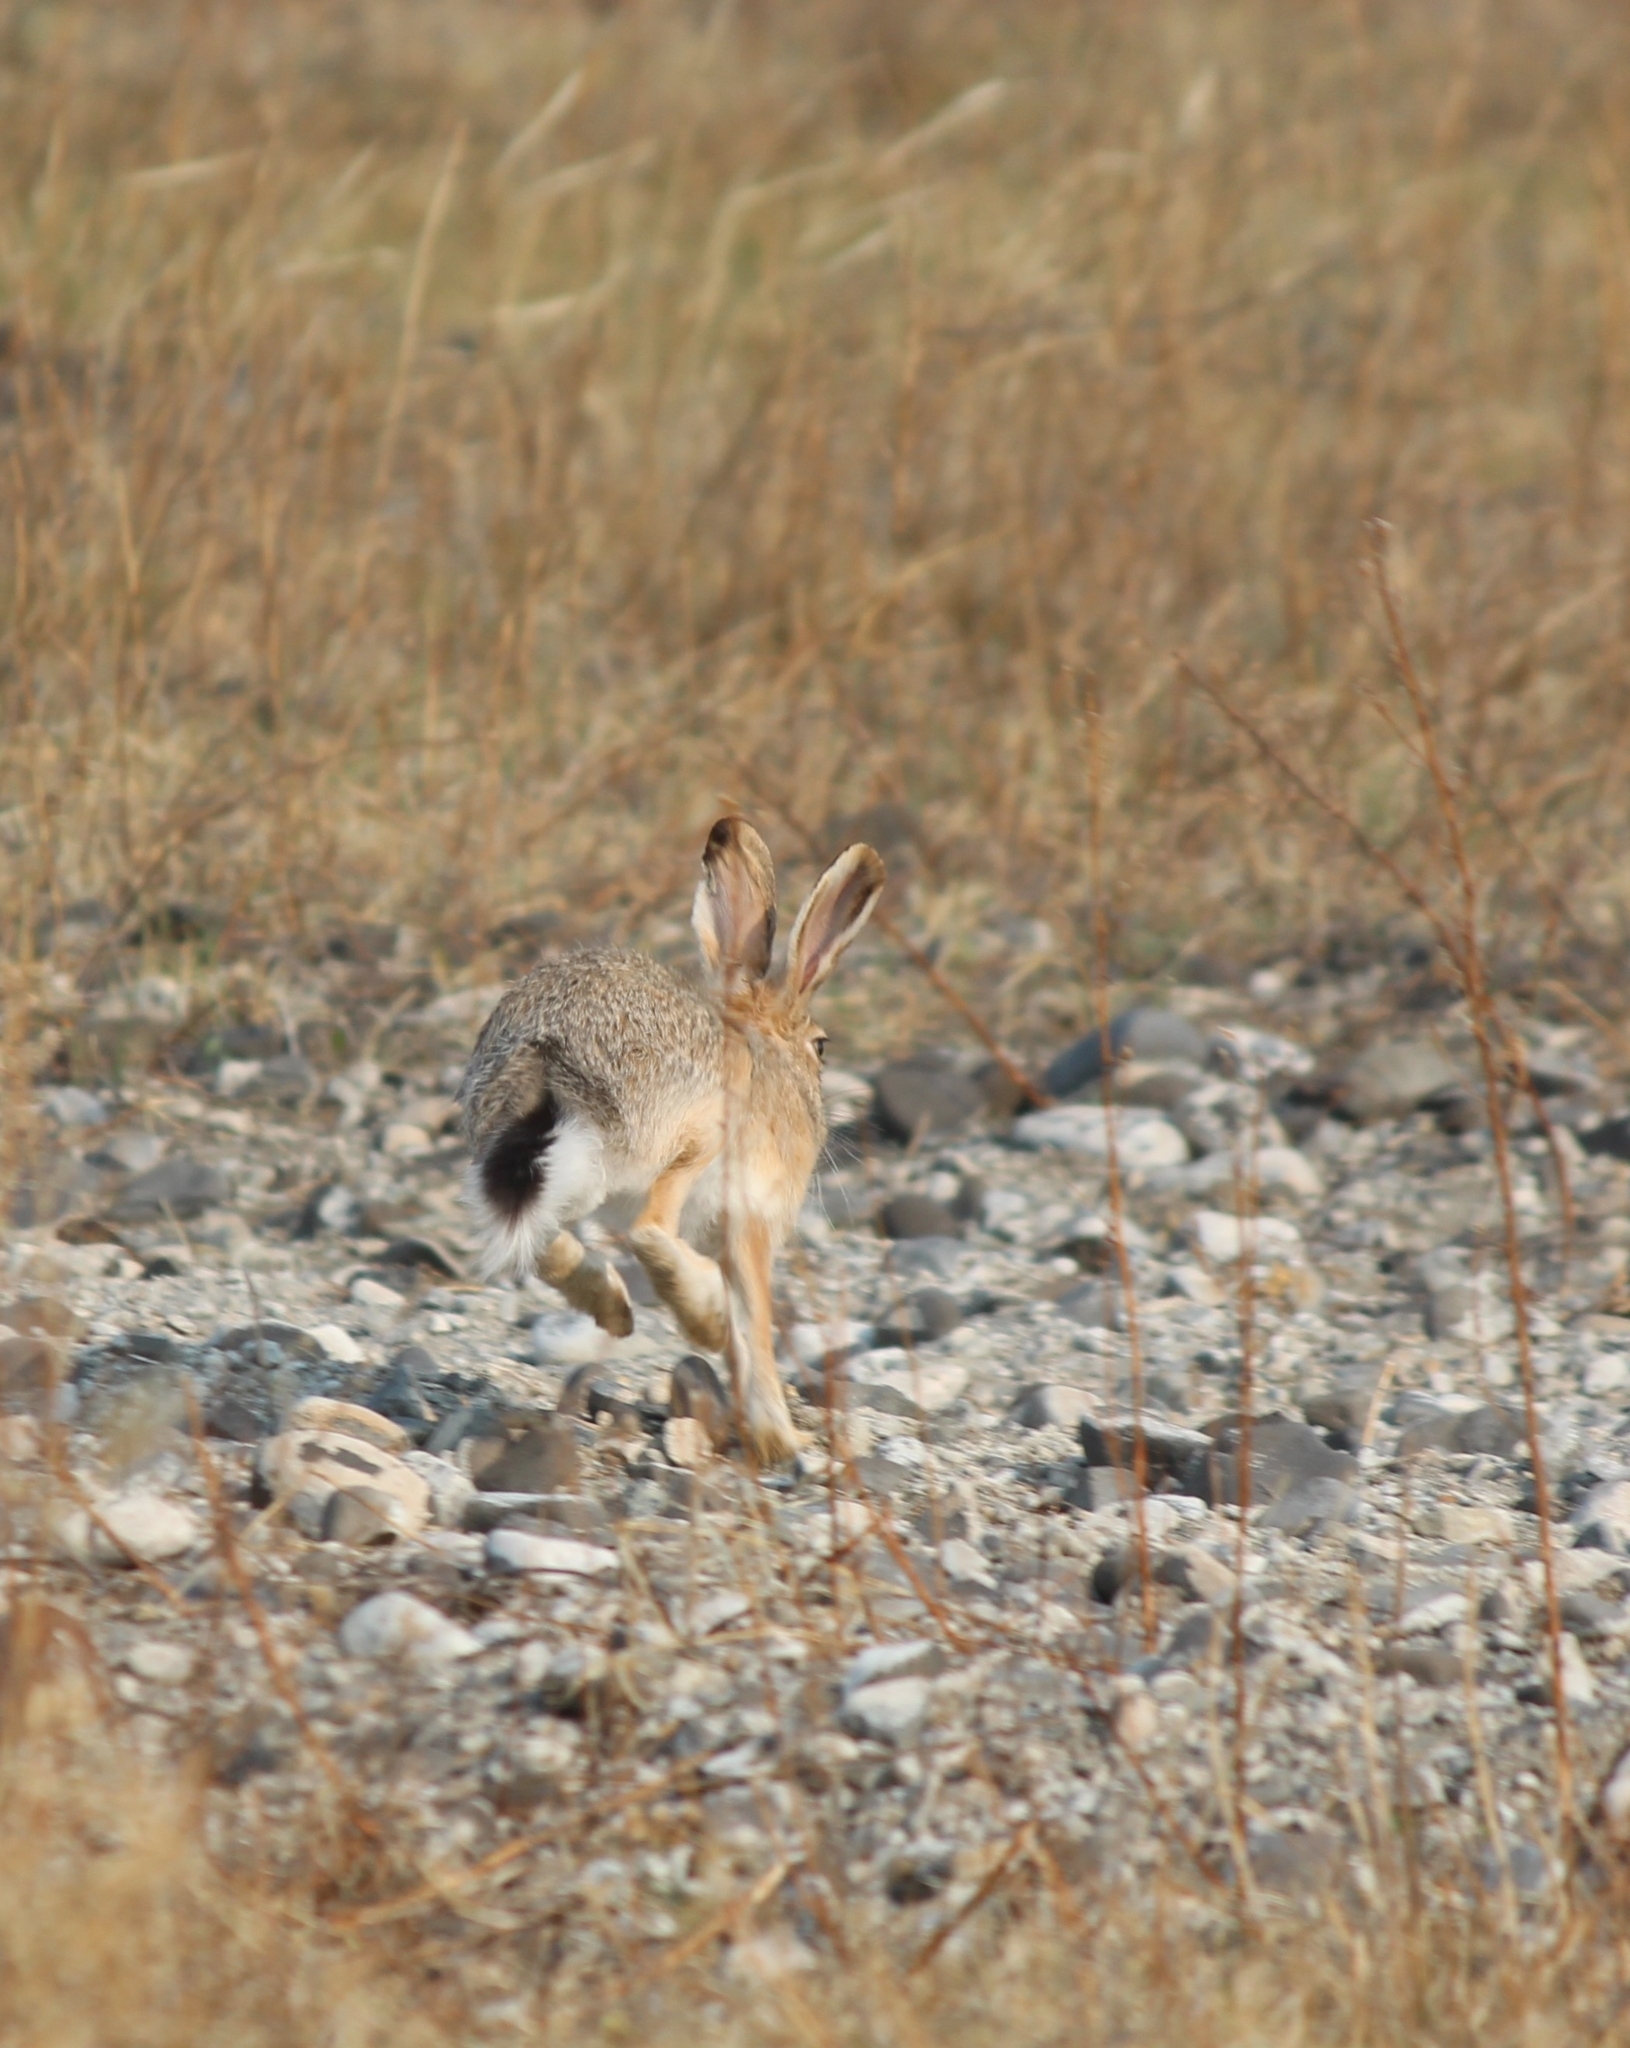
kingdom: Animalia
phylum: Chordata
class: Mammalia
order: Lagomorpha
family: Leporidae
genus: Lepus
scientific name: Lepus tolai
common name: Tolai hare
